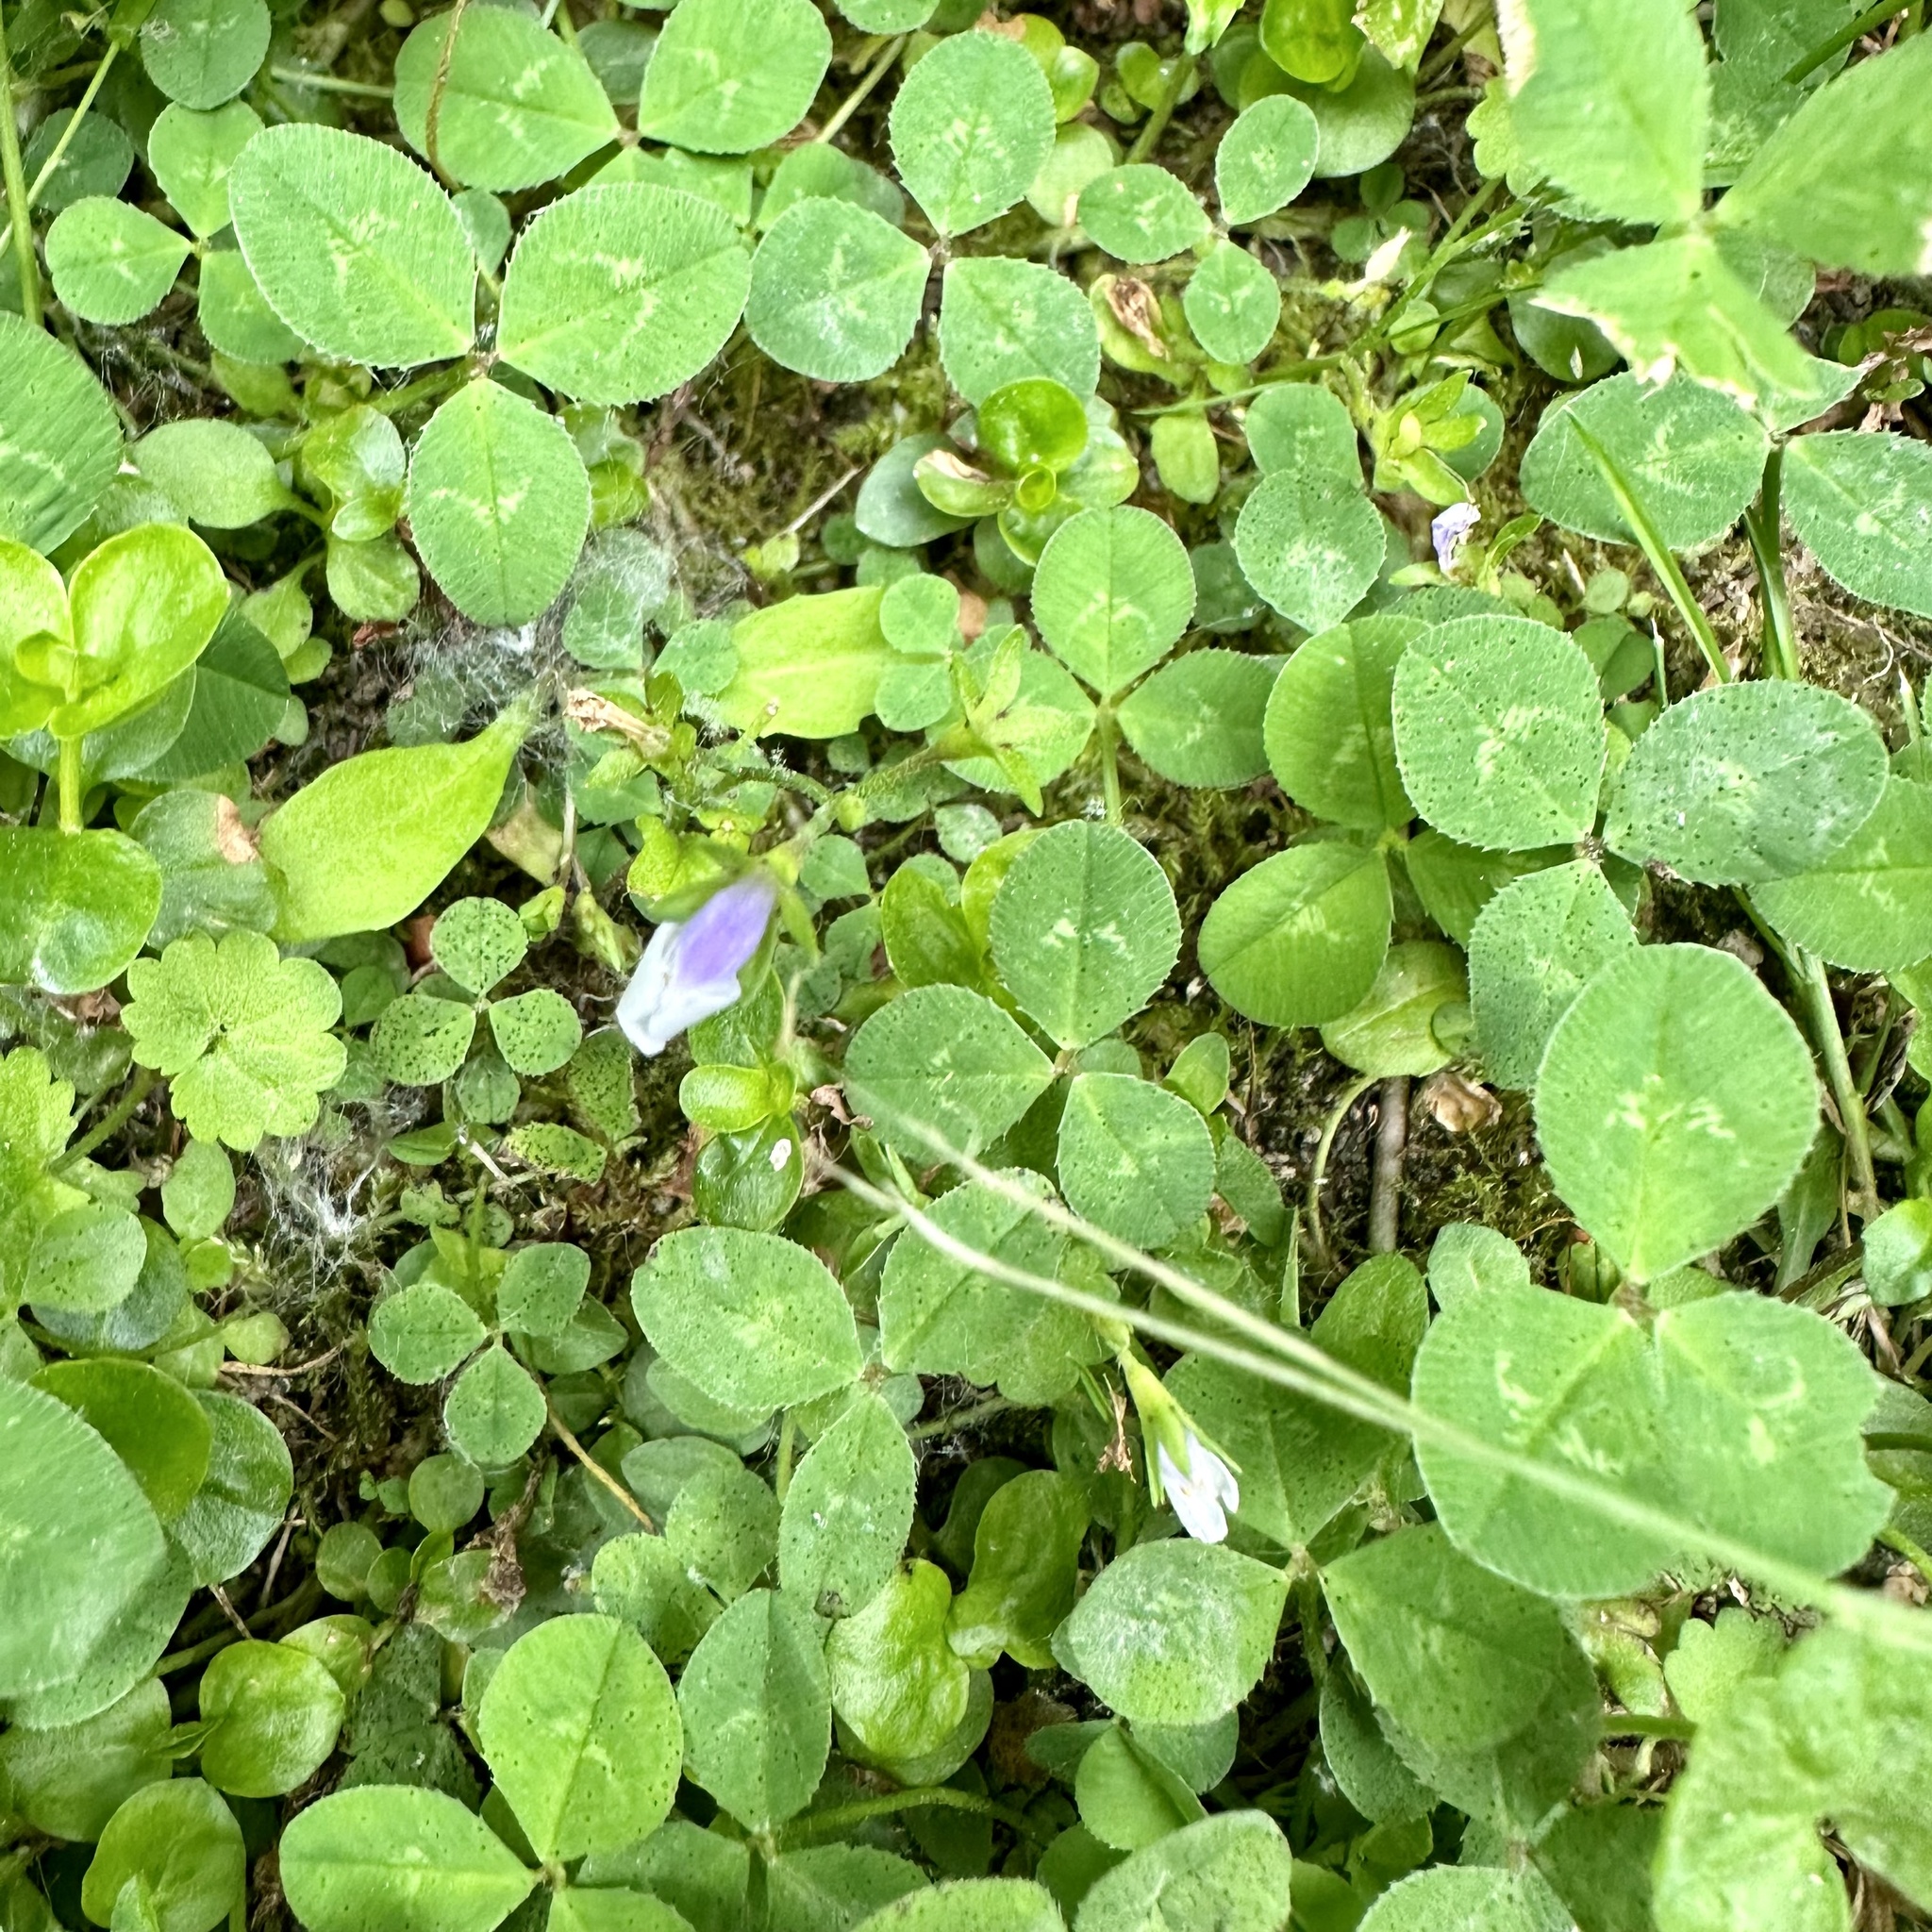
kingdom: Plantae
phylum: Tracheophyta
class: Magnoliopsida
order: Lamiales
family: Mazaceae
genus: Mazus
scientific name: Mazus pumilus
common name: Japanese mazus
